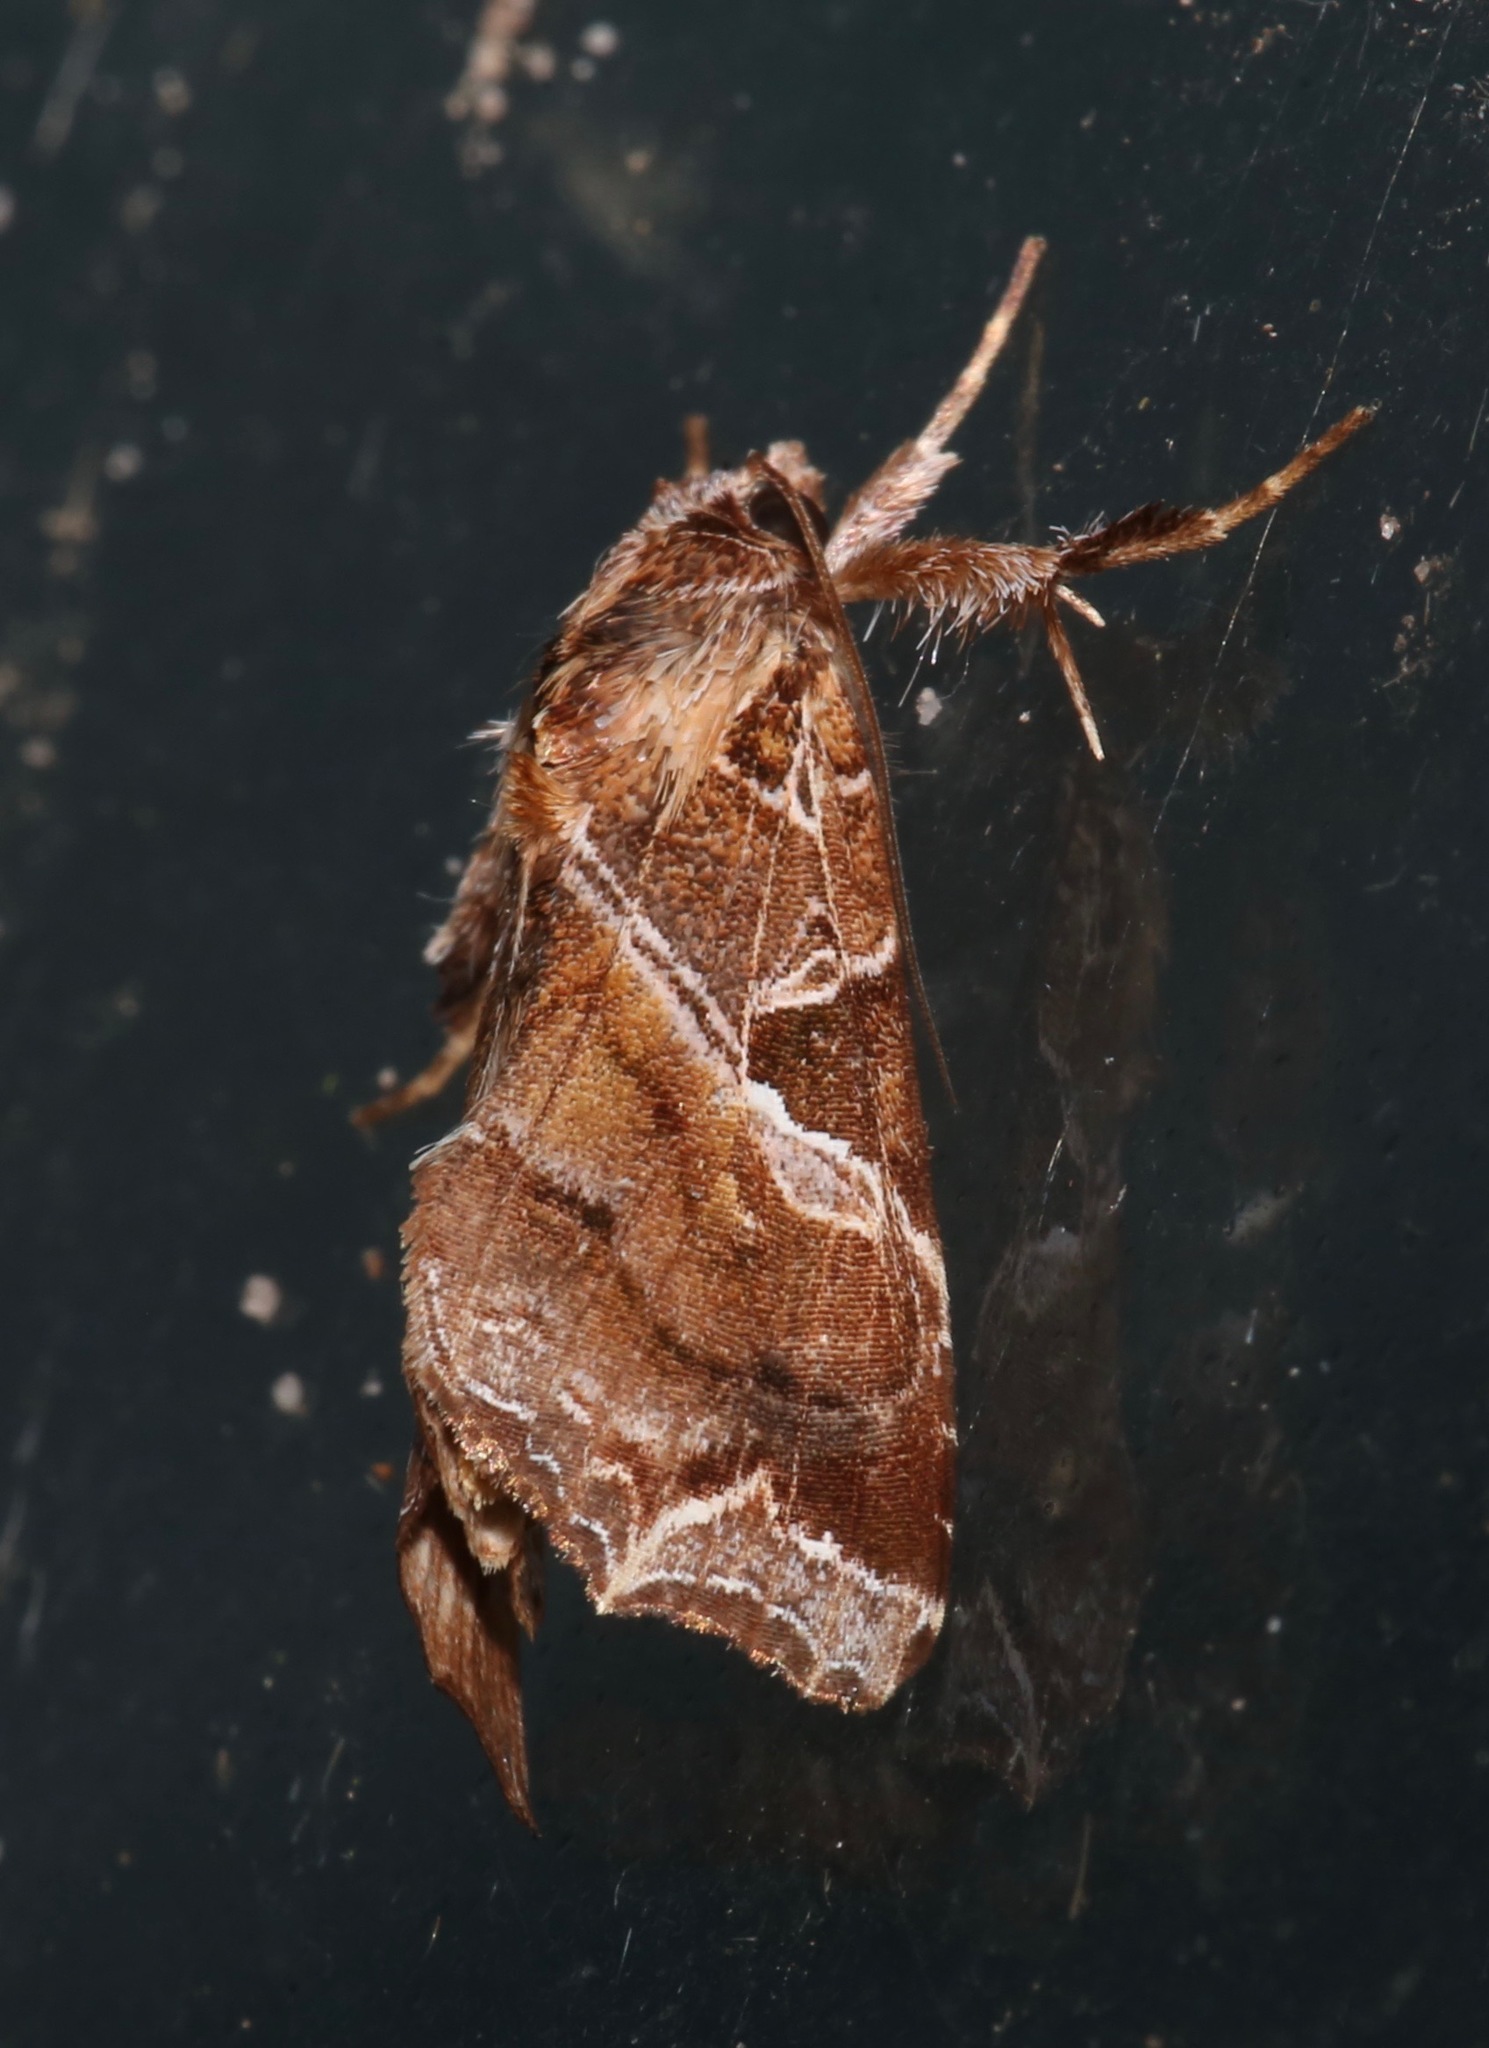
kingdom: Animalia
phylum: Arthropoda
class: Insecta
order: Lepidoptera
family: Noctuidae
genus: Callopistria
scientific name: Callopistria floridensis
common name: Florida fern moth
